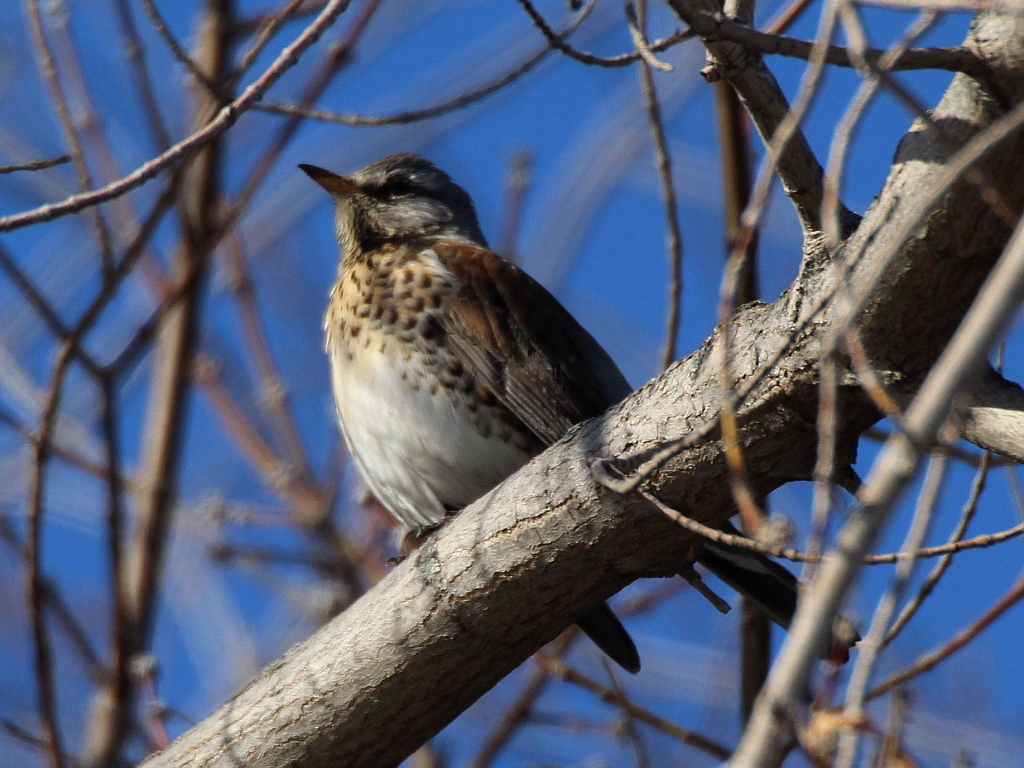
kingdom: Animalia
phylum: Chordata
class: Aves
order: Passeriformes
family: Turdidae
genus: Turdus
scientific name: Turdus pilaris
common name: Fieldfare
